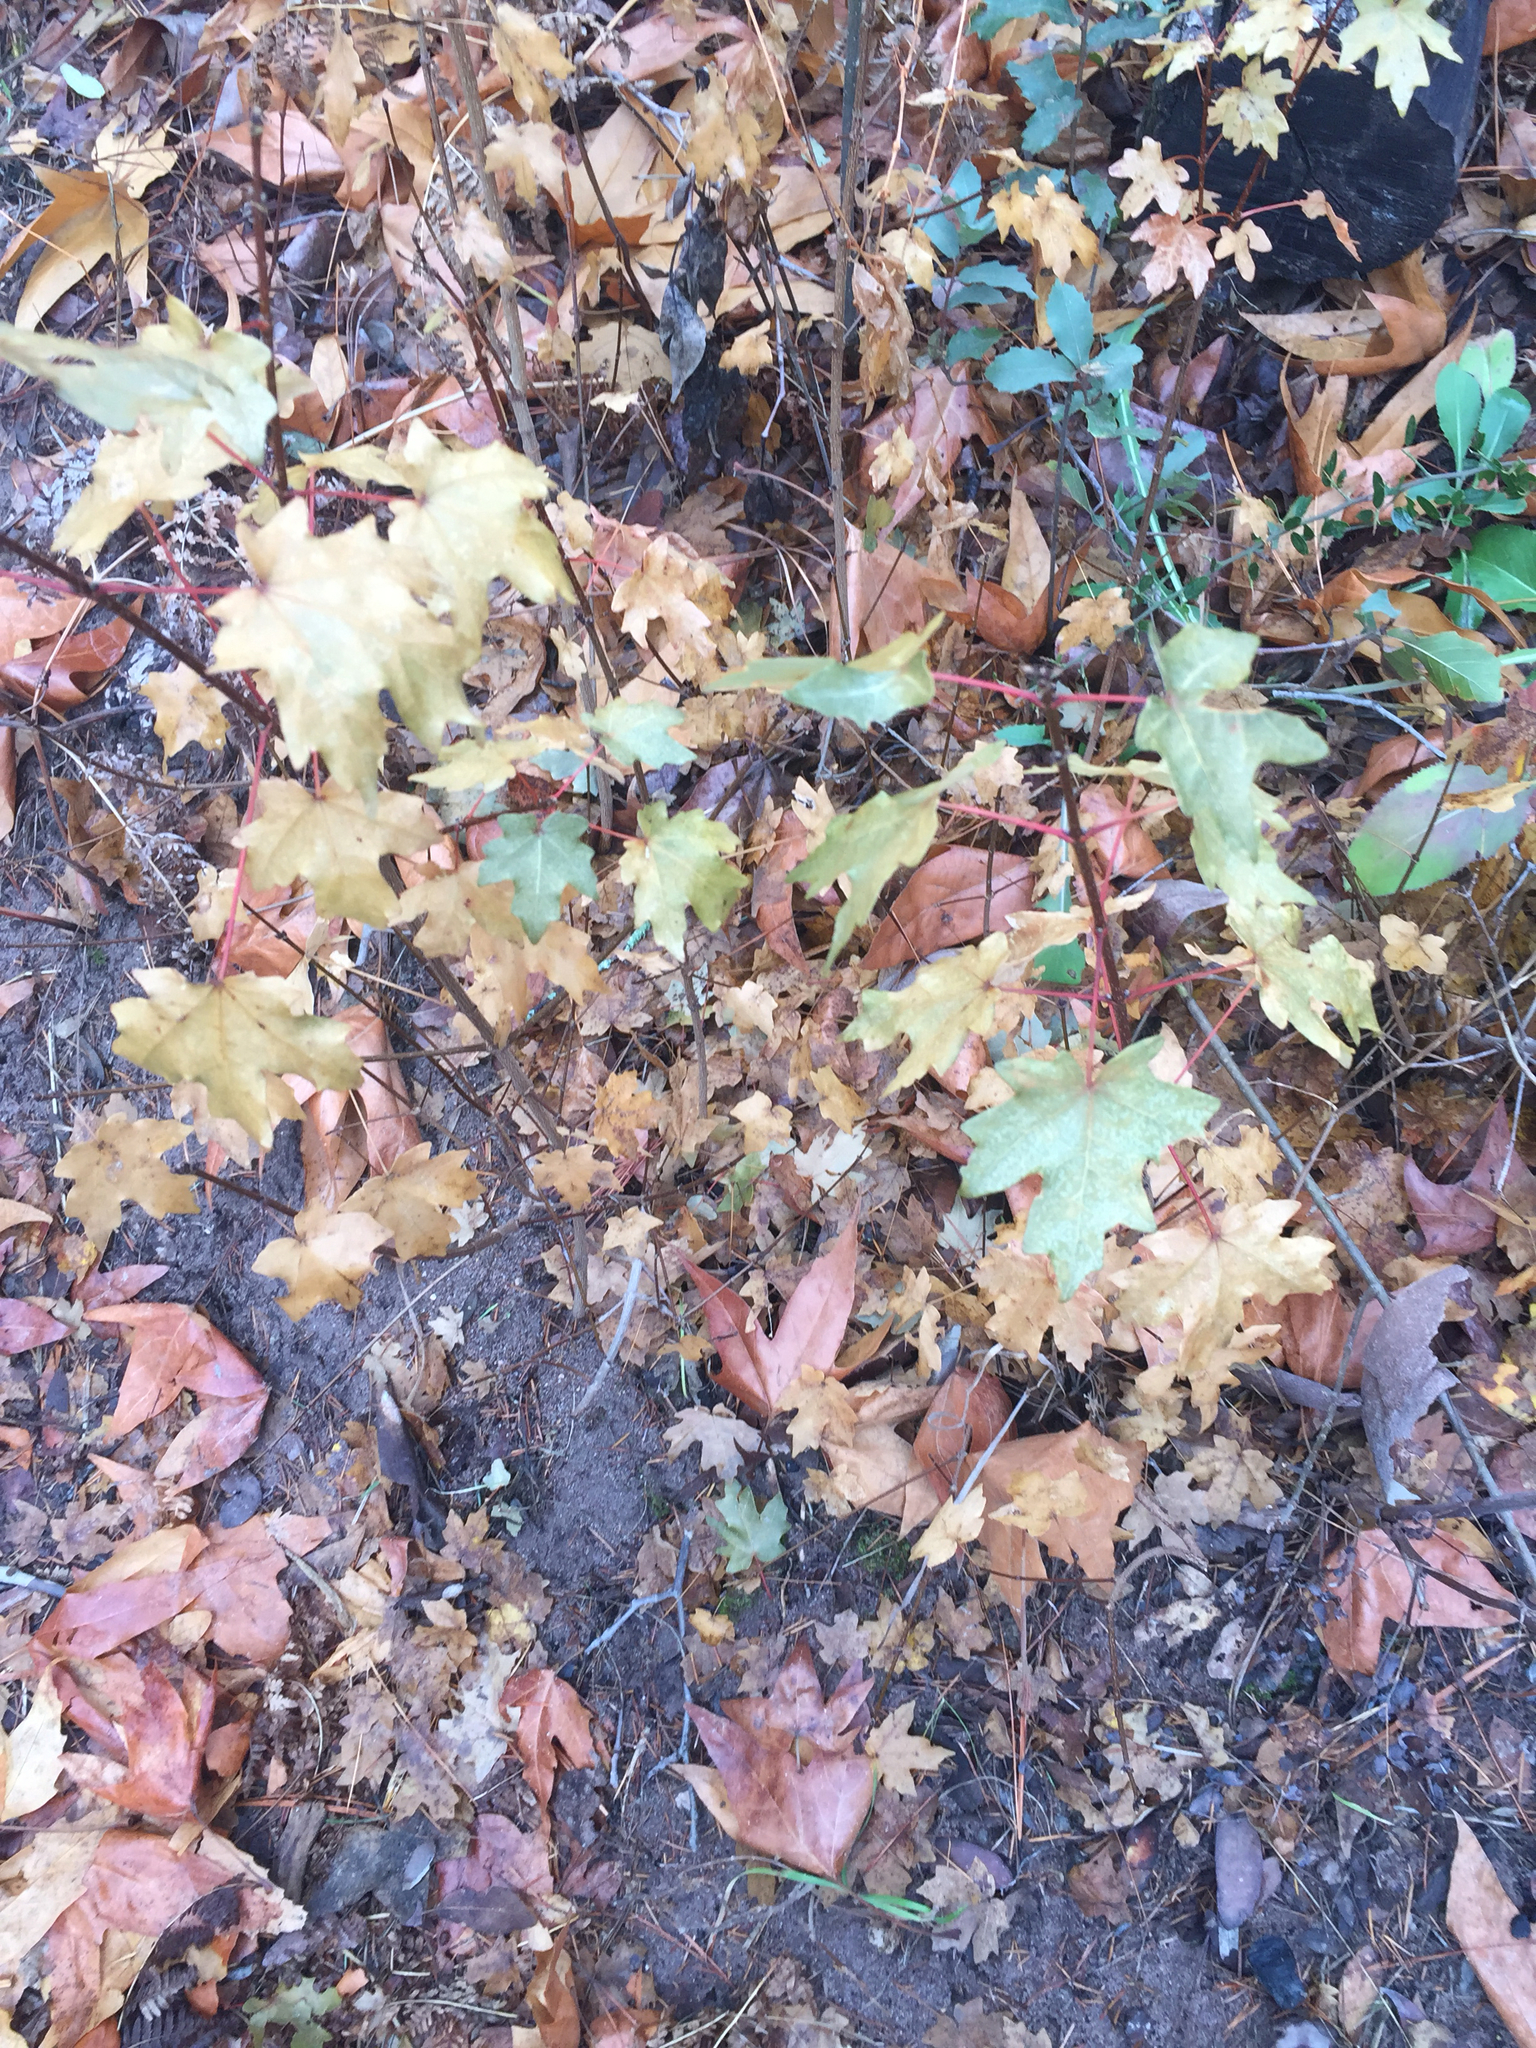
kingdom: Plantae
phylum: Tracheophyta
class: Magnoliopsida
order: Sapindales
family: Sapindaceae
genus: Acer
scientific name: Acer grandidentatum
